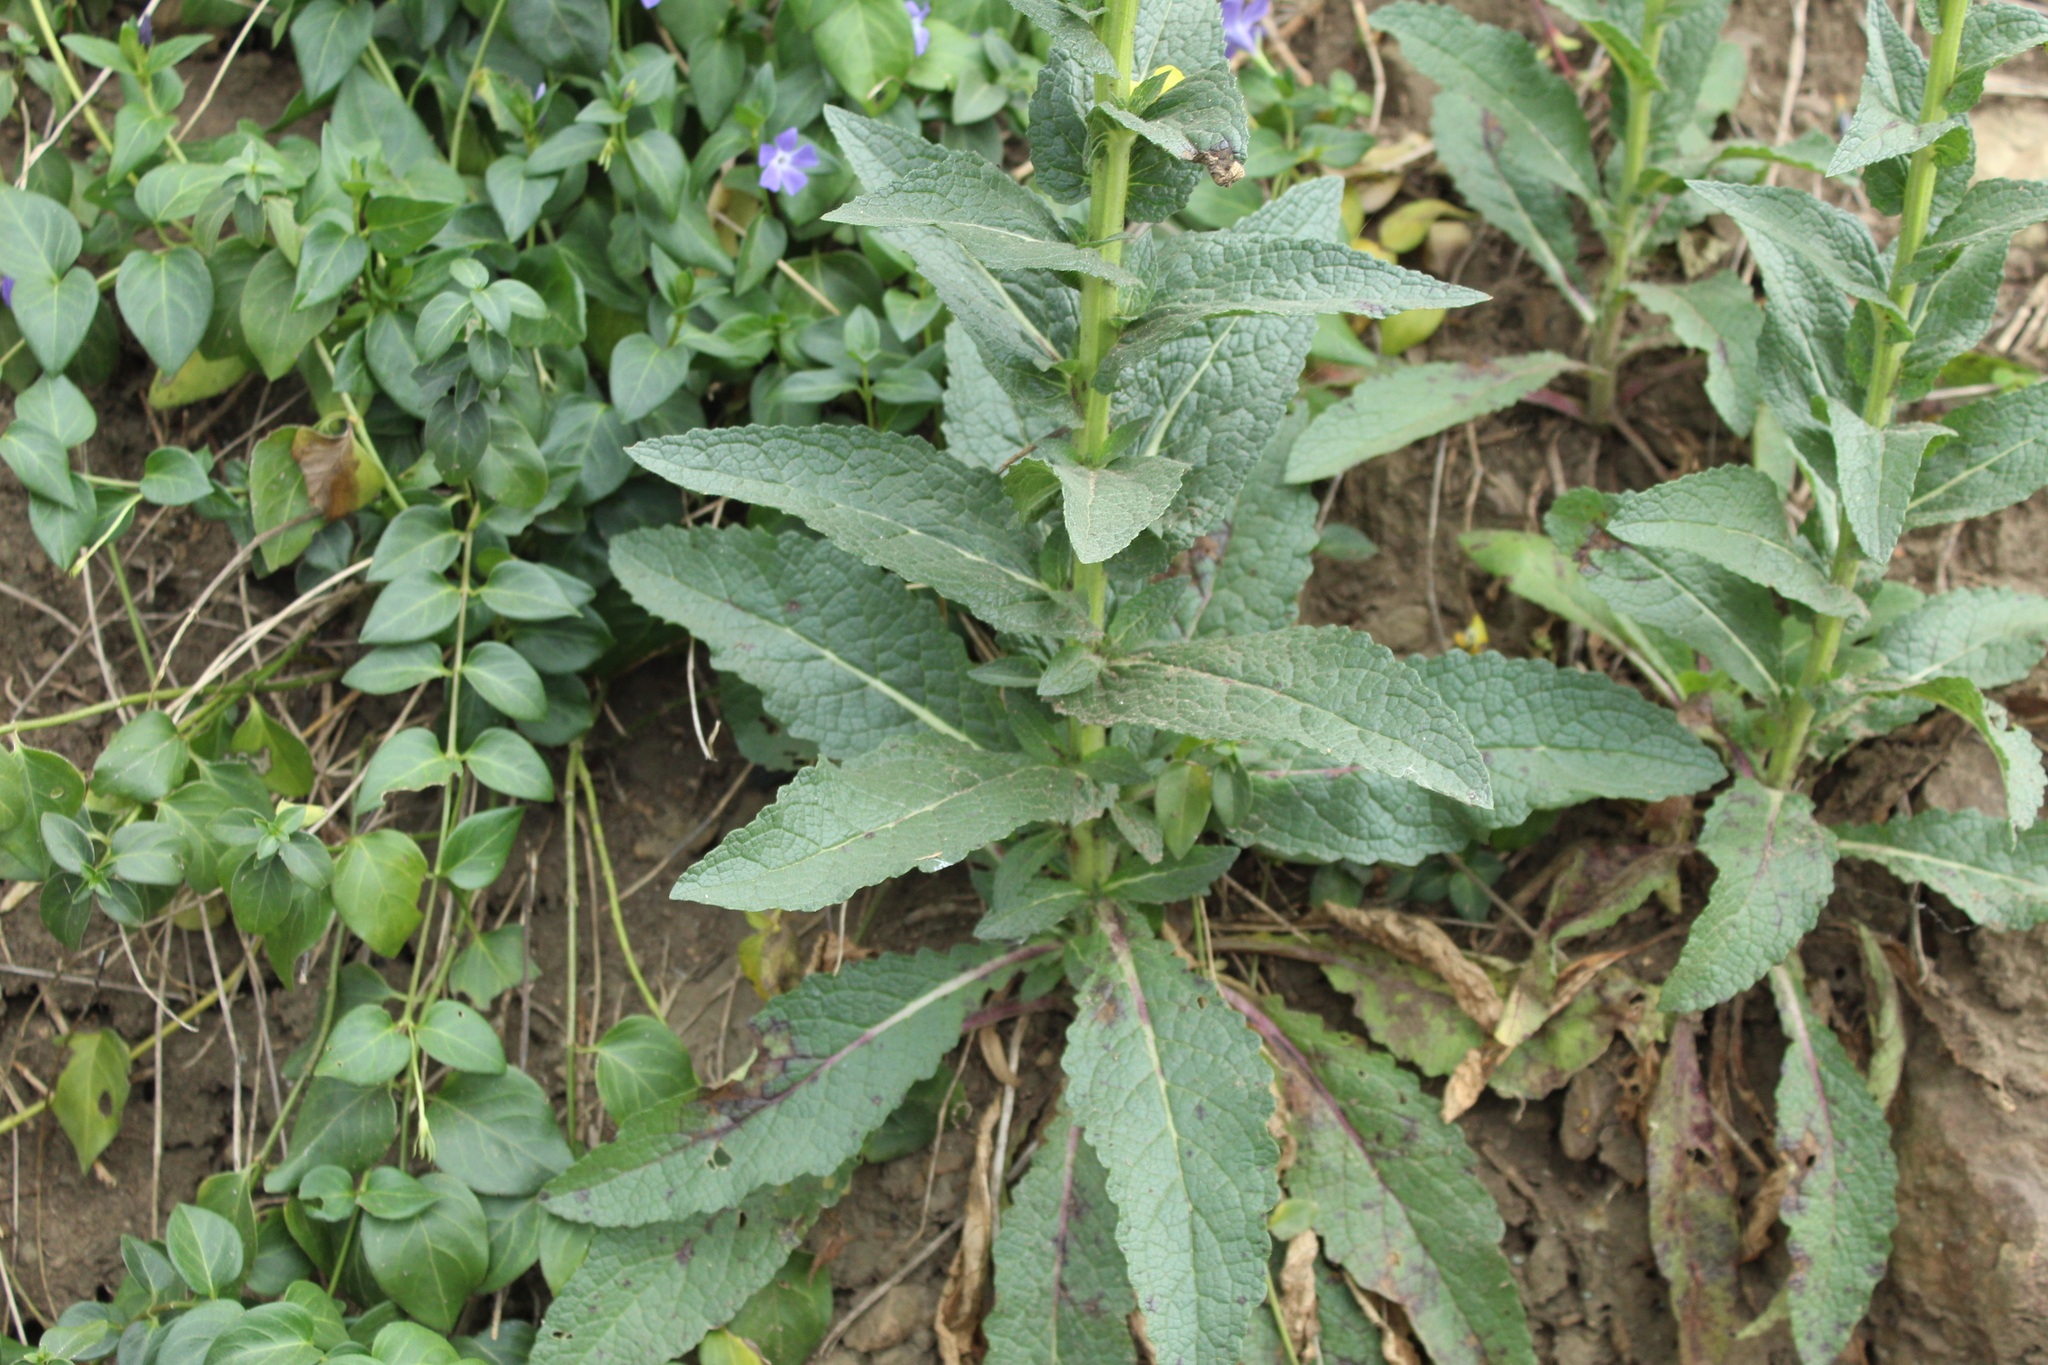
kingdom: Plantae
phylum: Tracheophyta
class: Magnoliopsida
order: Lamiales
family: Scrophulariaceae
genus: Verbascum
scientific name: Verbascum virgatum
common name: Twiggy mullein
